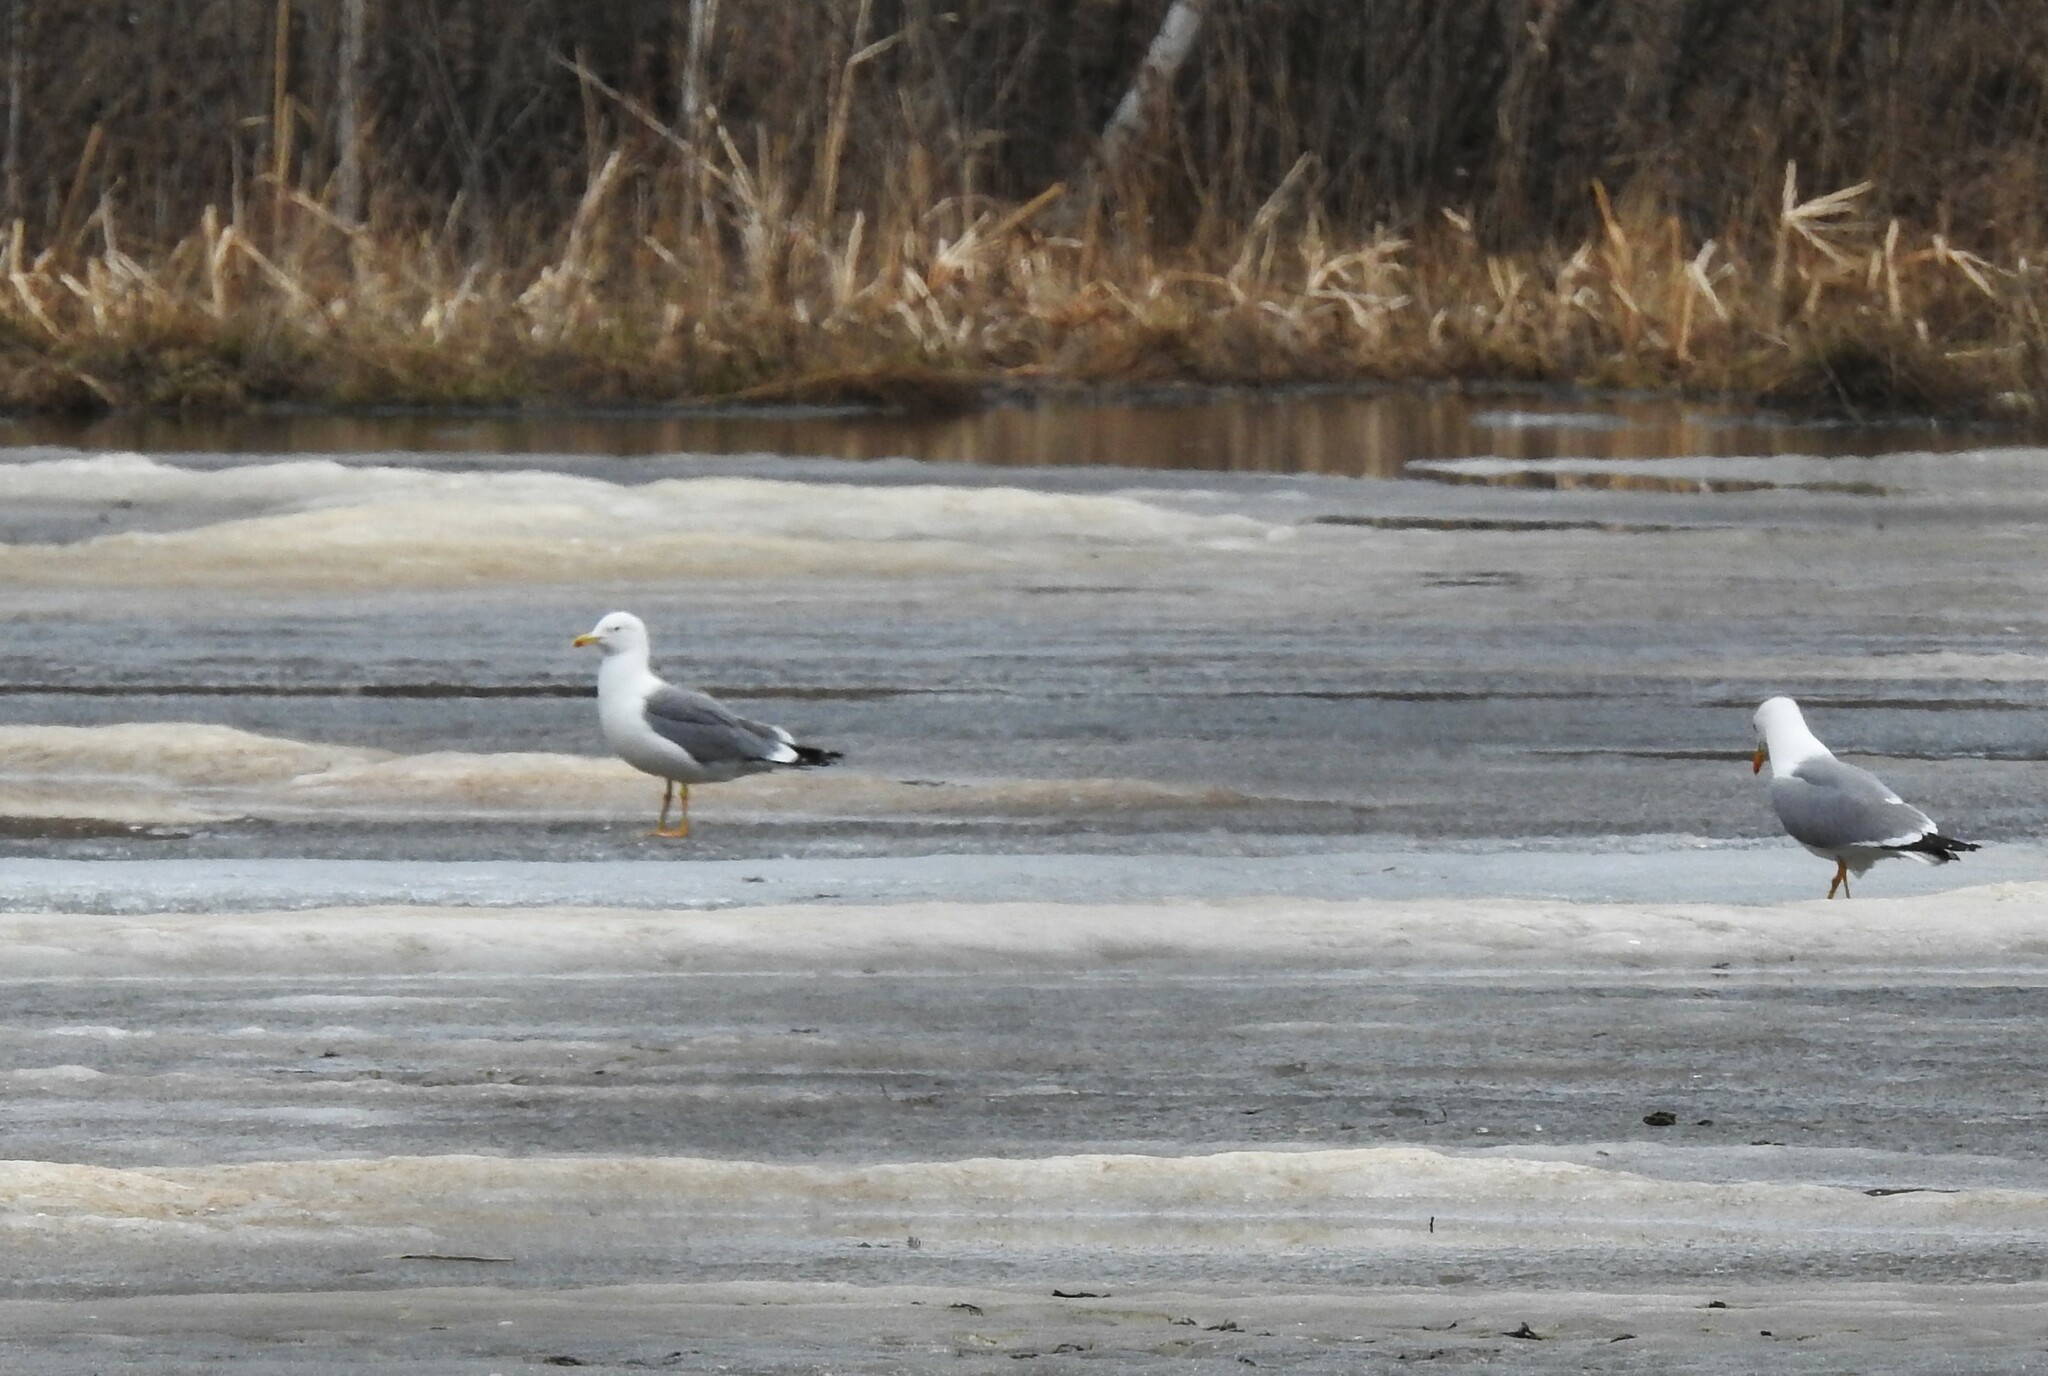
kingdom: Animalia
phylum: Chordata
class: Aves
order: Charadriiformes
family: Laridae
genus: Larus
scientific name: Larus fuscus
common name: Lesser black-backed gull
